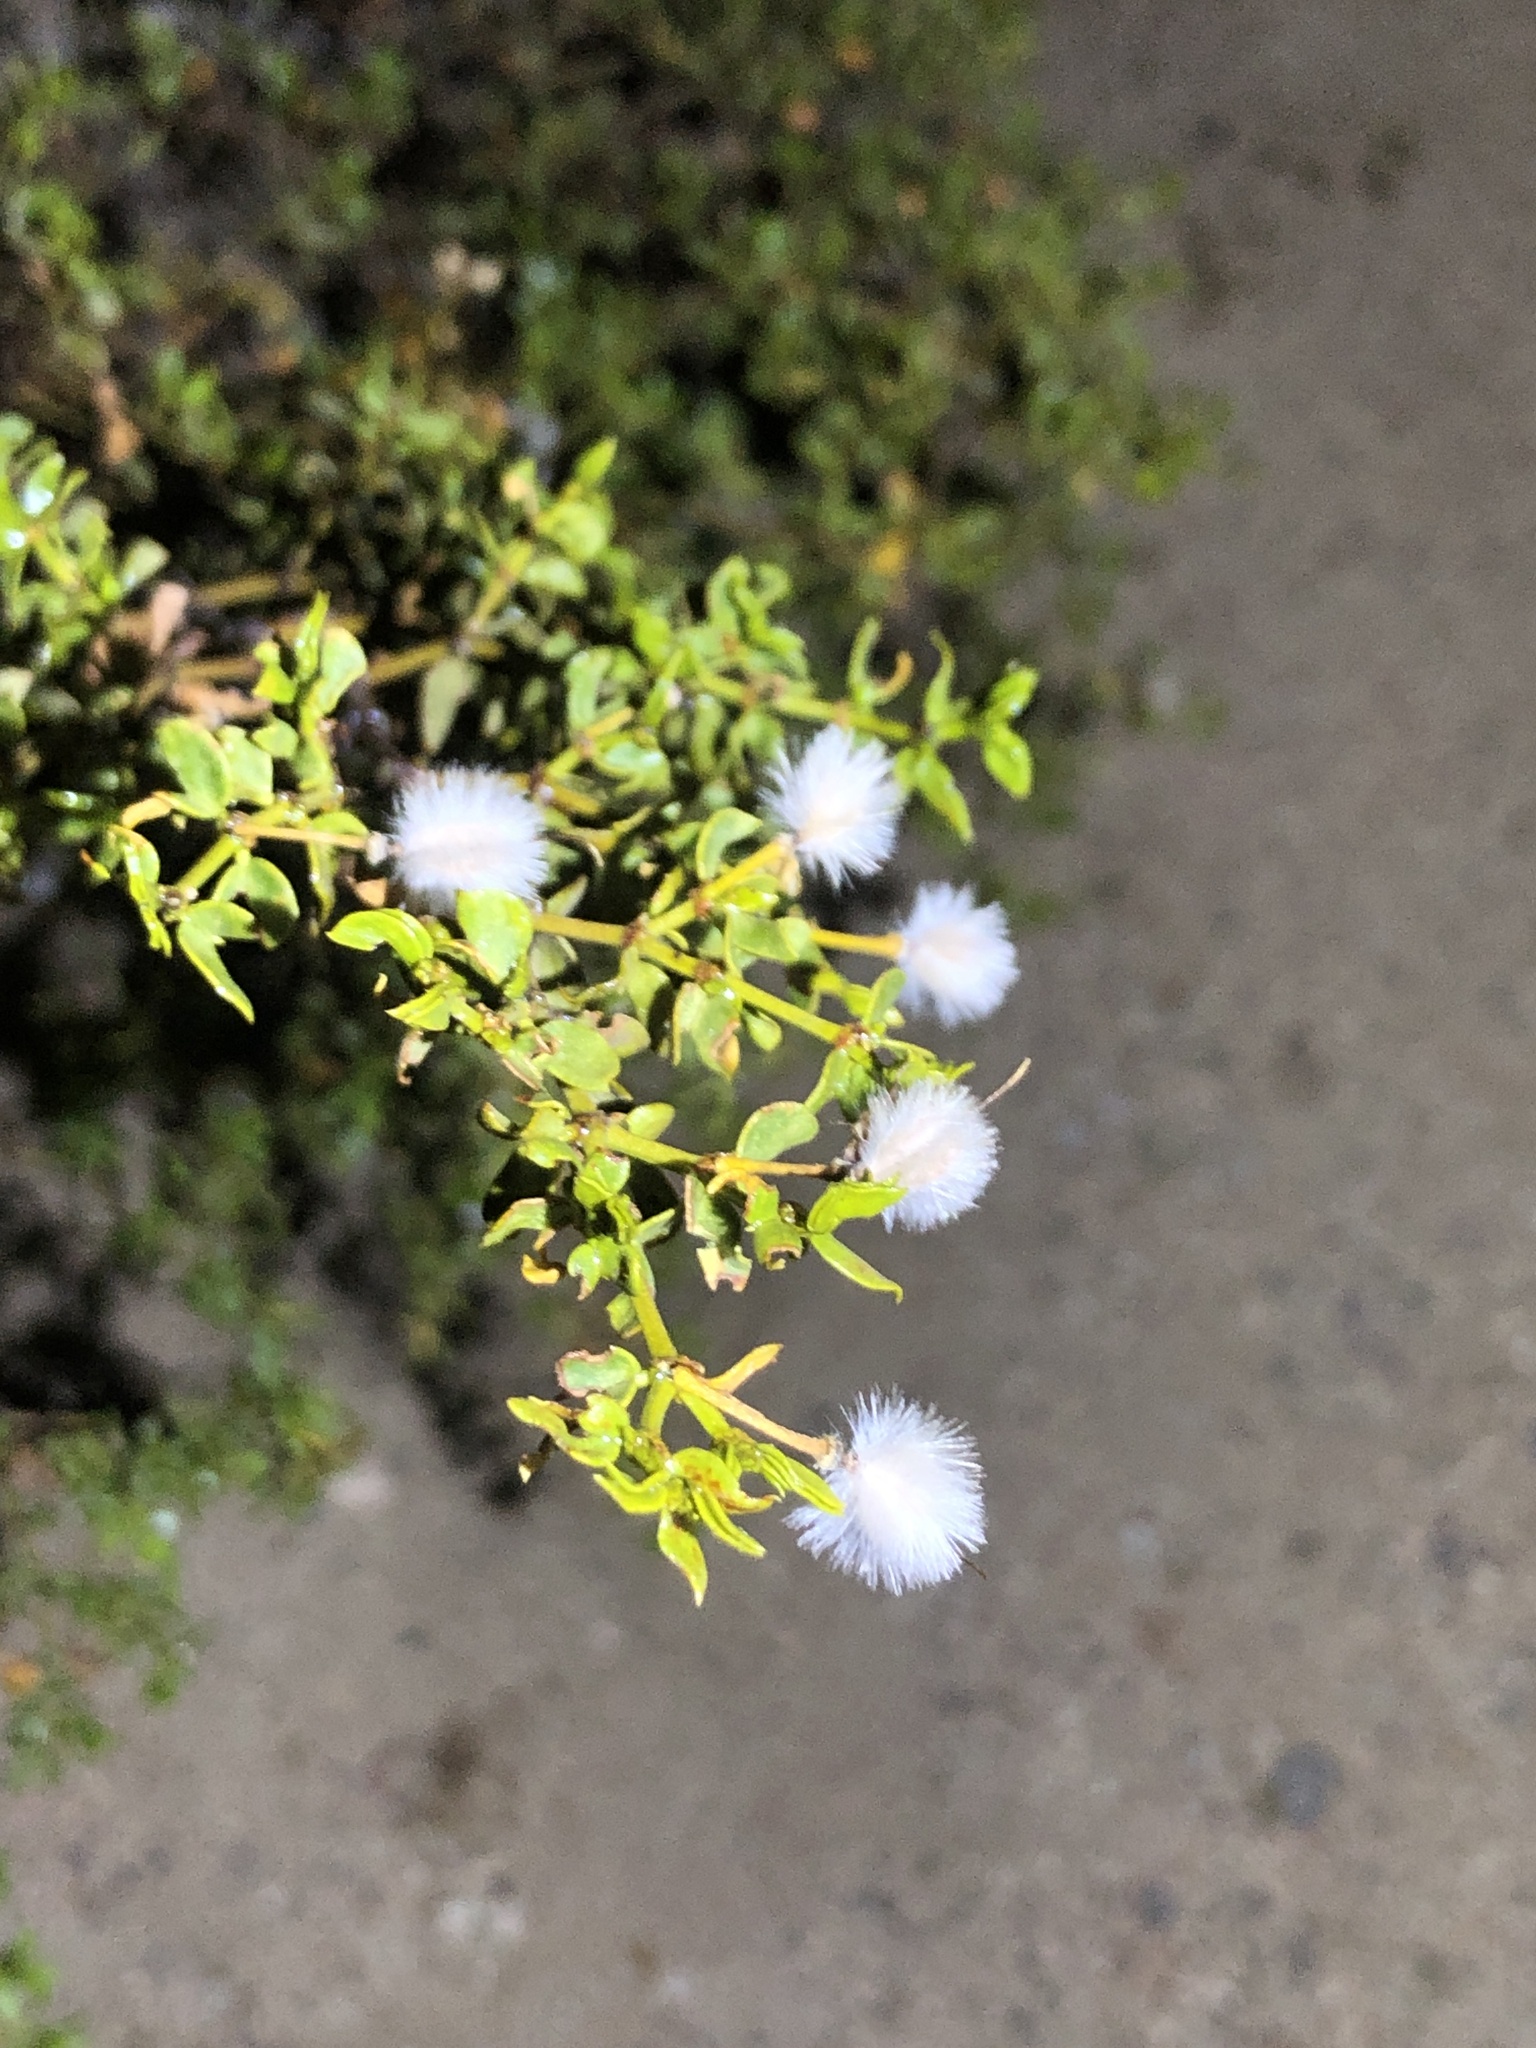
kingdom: Plantae
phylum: Tracheophyta
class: Magnoliopsida
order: Zygophyllales
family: Zygophyllaceae
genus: Larrea
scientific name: Larrea tridentata
